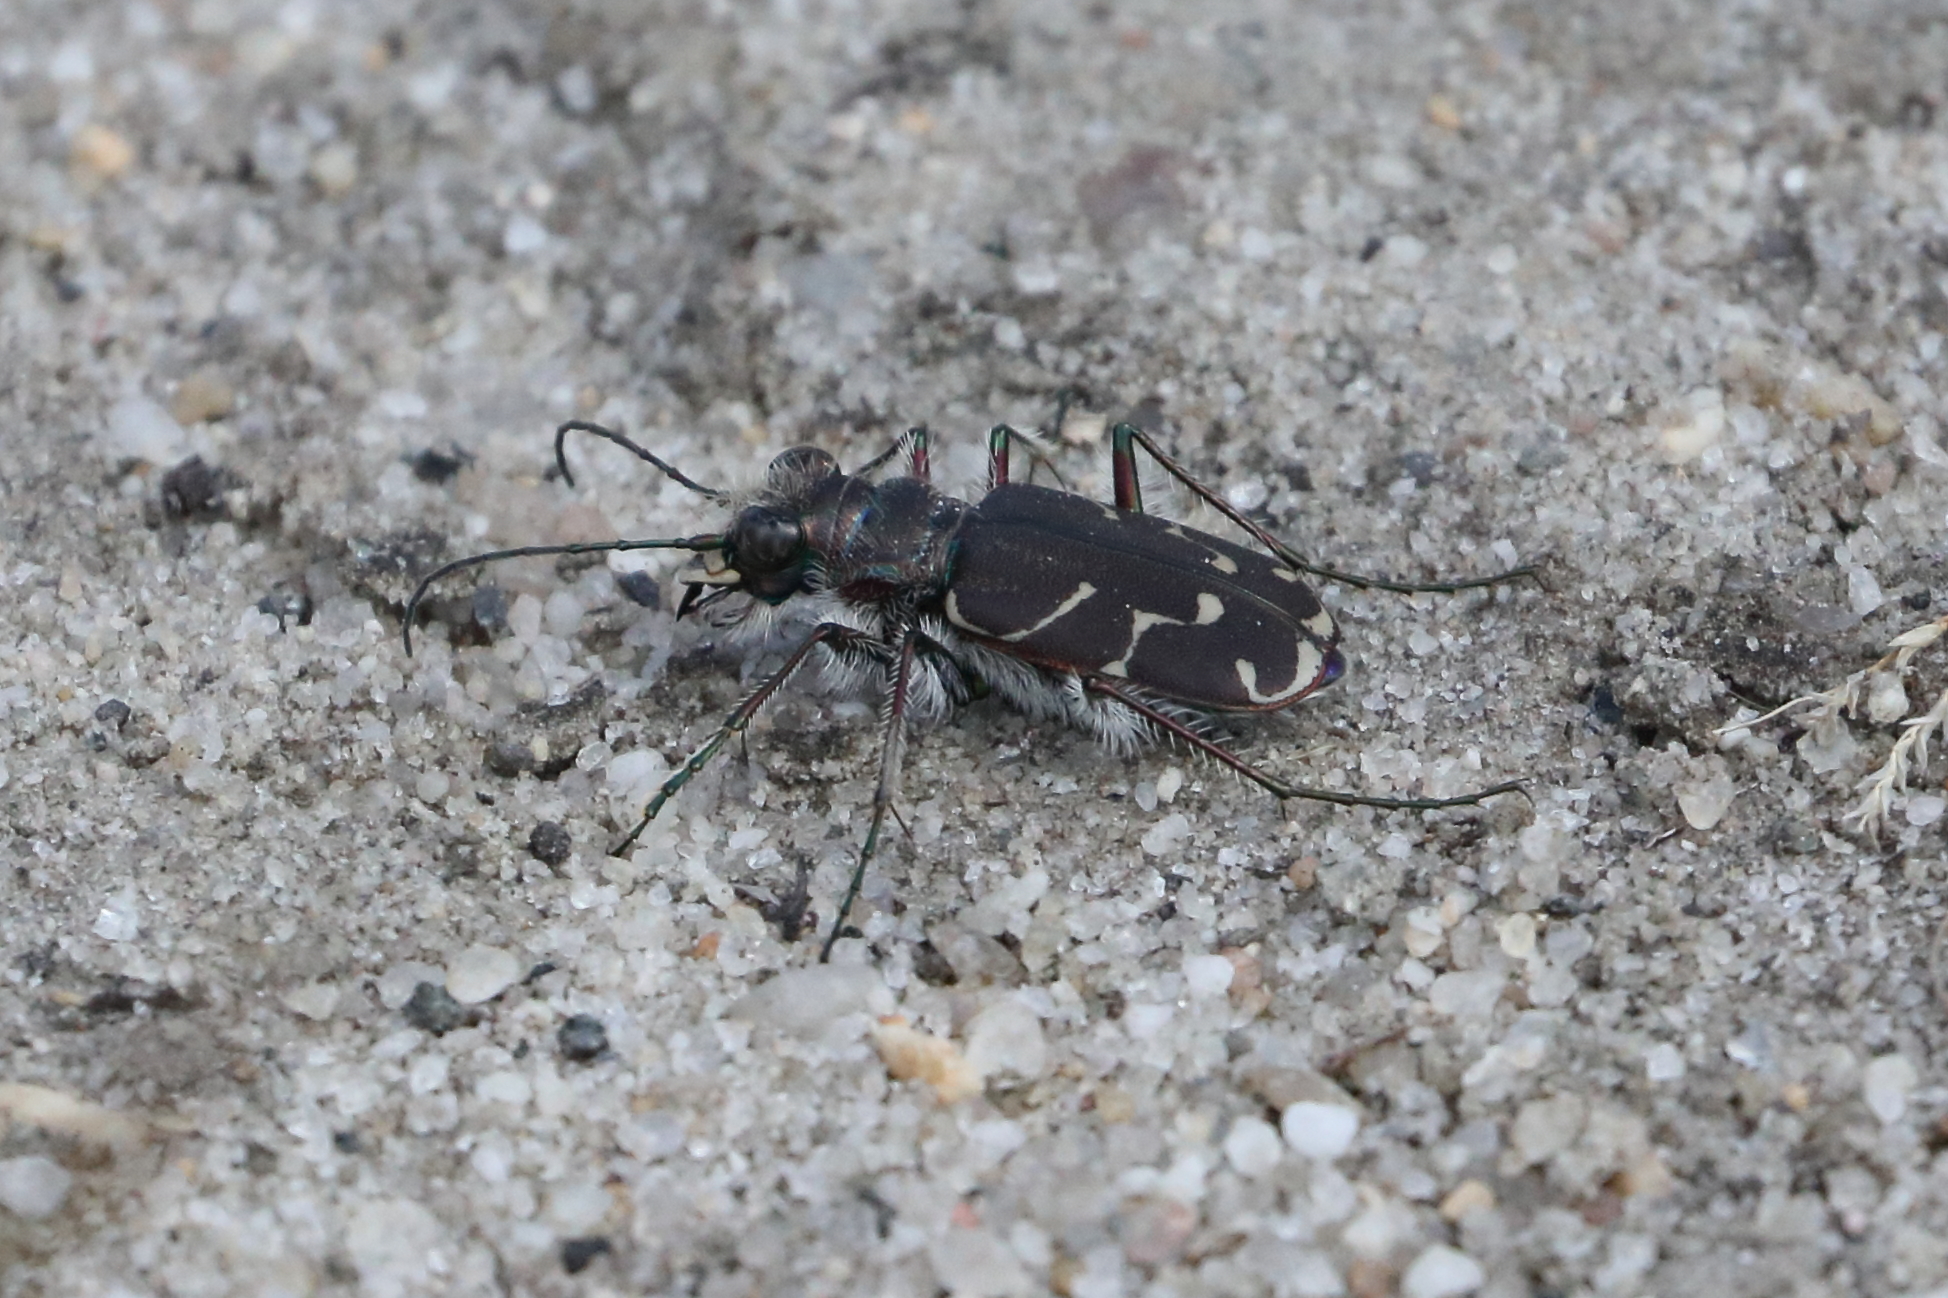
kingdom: Animalia
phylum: Arthropoda
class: Insecta
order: Coleoptera
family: Carabidae
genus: Cicindela
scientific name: Cicindela tranquebarica
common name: Oblique-lined tiger beetle
